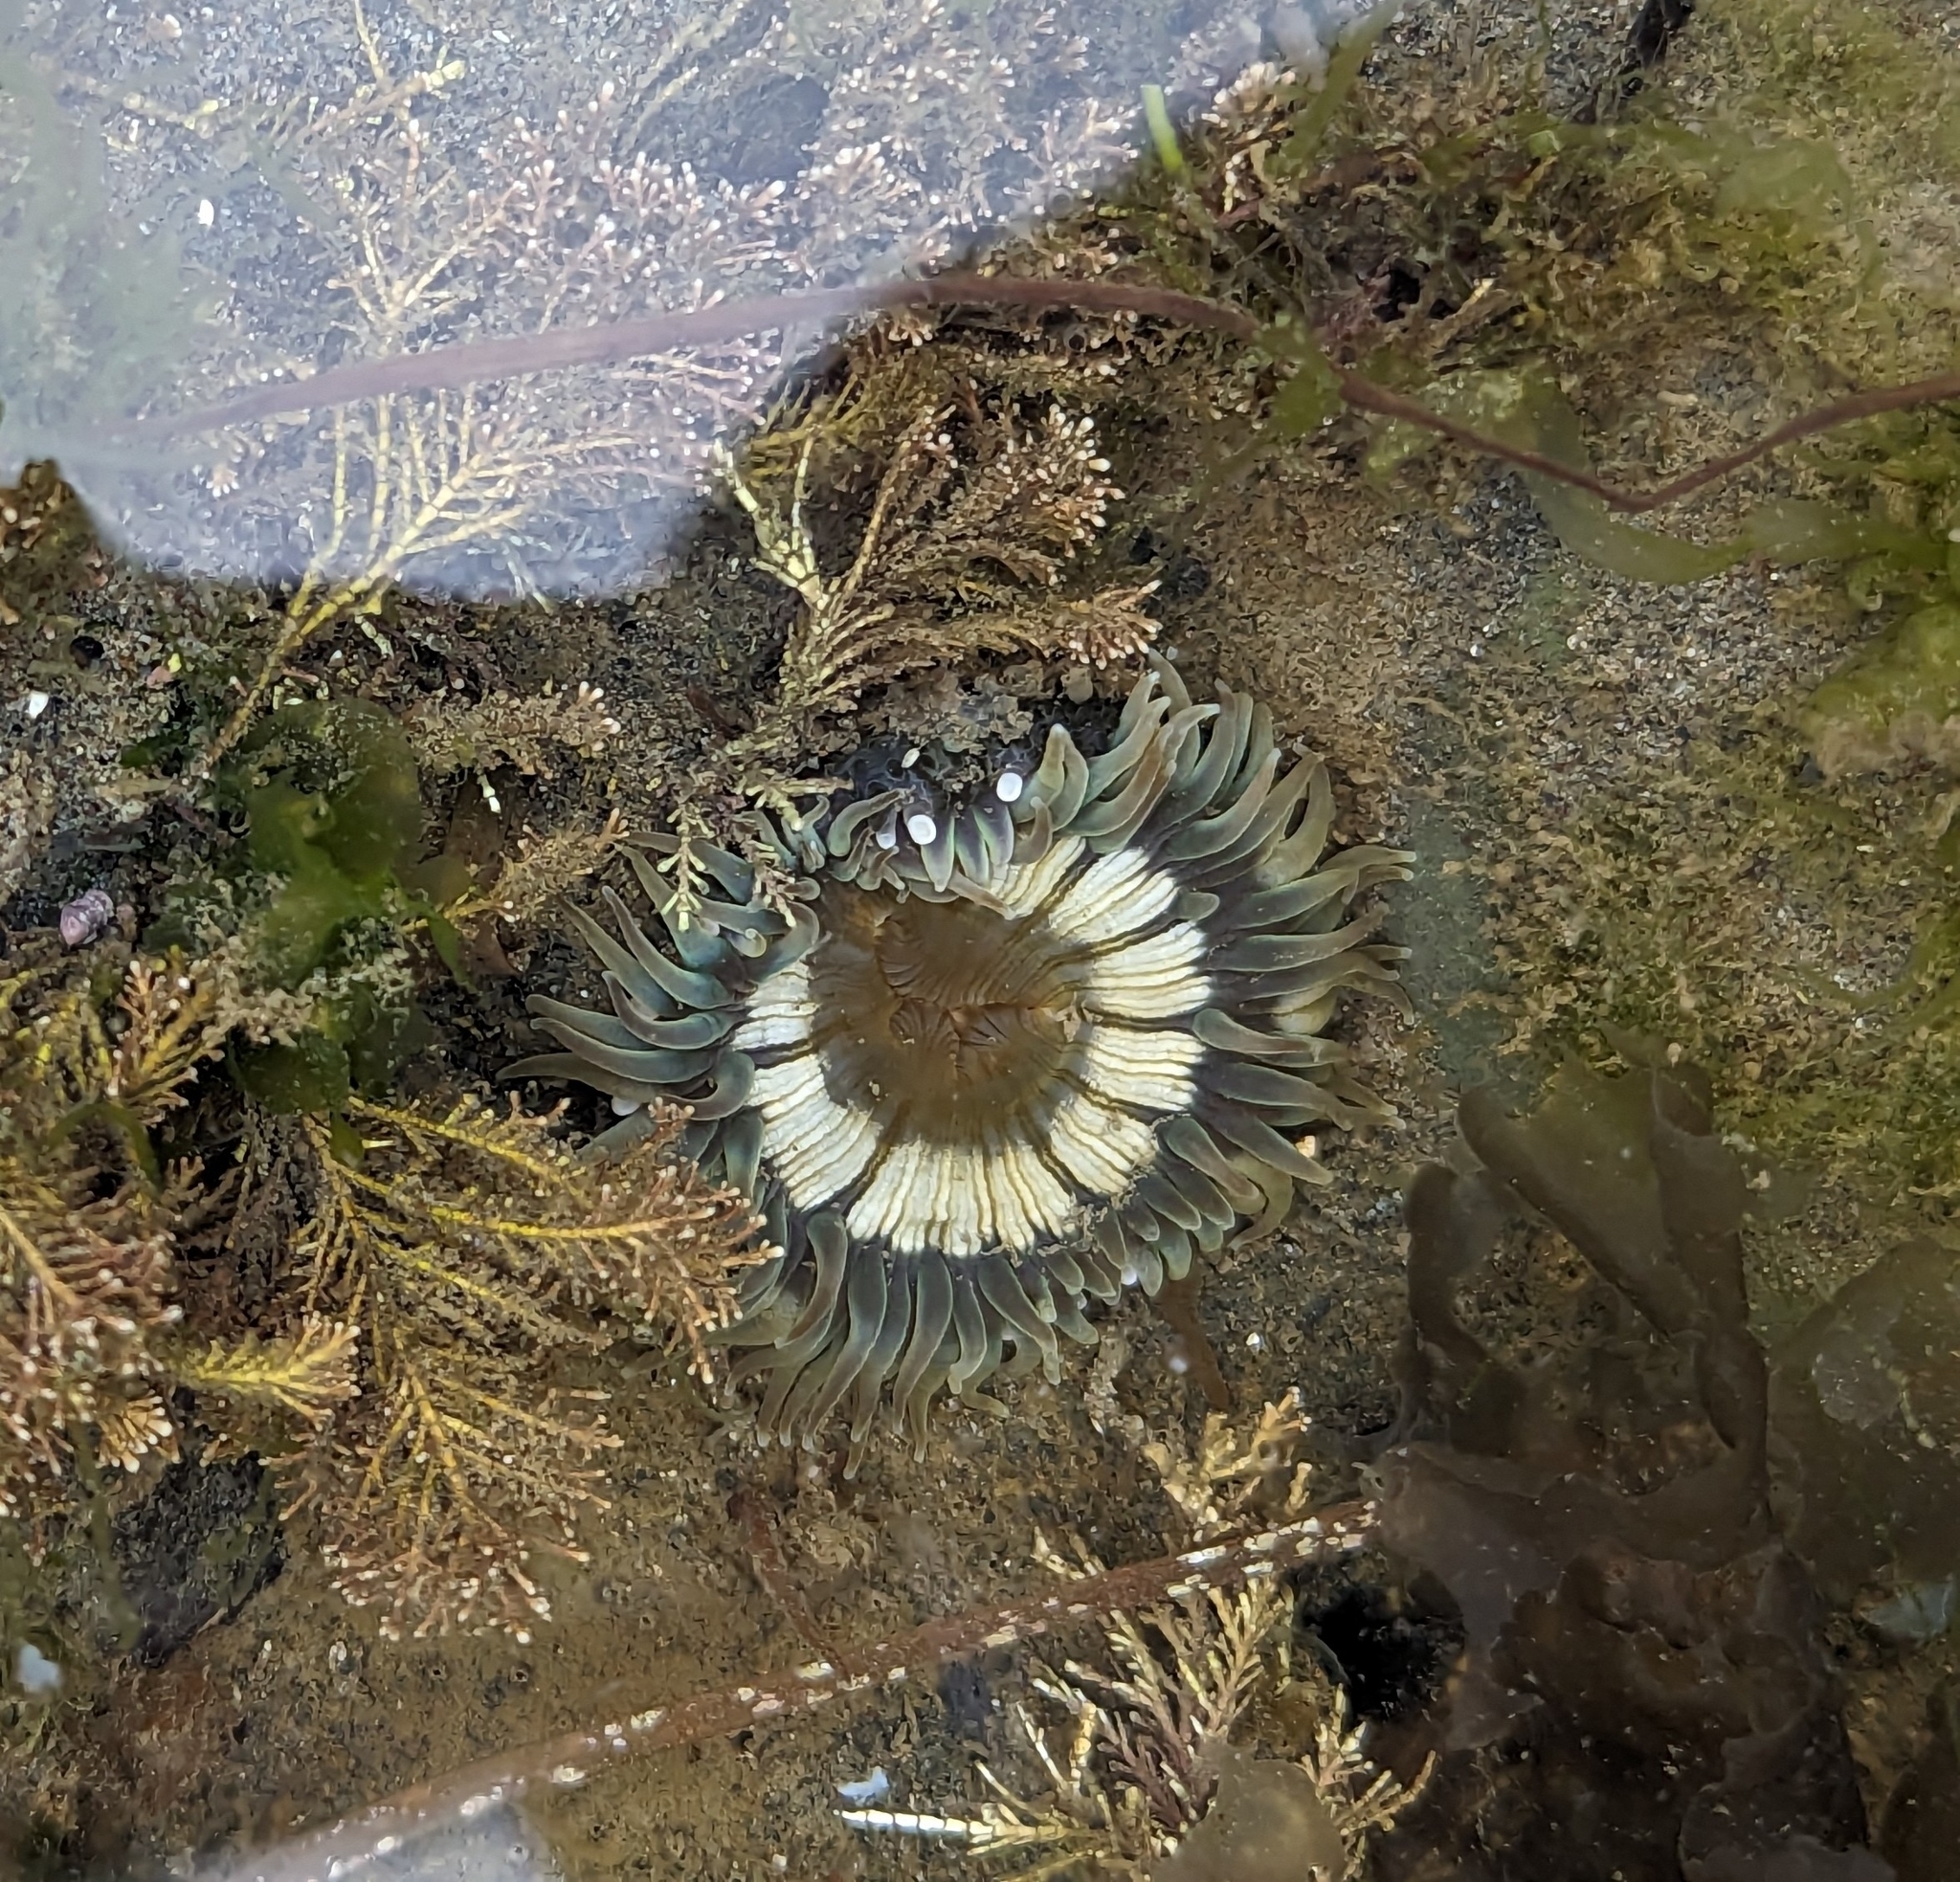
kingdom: Animalia
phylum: Cnidaria
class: Anthozoa
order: Actiniaria
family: Actiniidae
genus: Anthopleura
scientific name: Anthopleura sola
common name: Sun anemone
